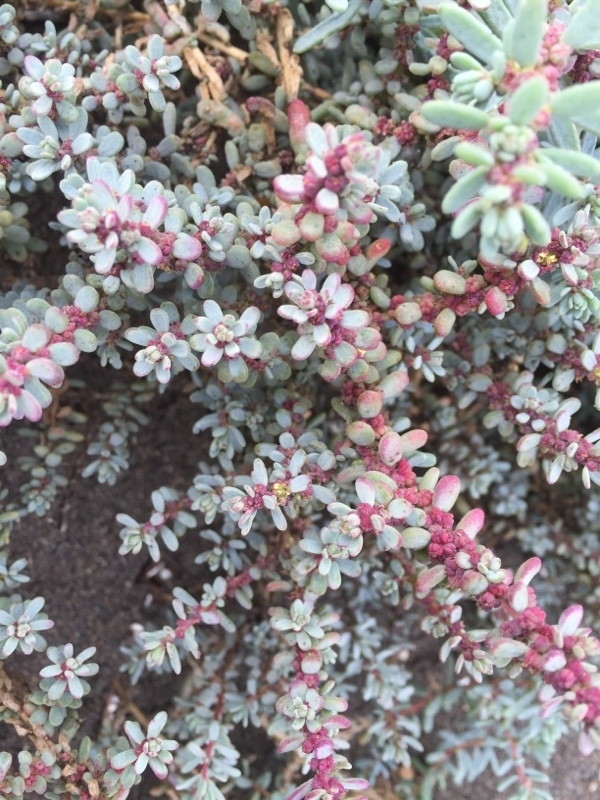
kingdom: Plantae
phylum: Tracheophyta
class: Magnoliopsida
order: Caryophyllales
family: Amaranthaceae
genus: Suaeda
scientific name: Suaeda vermiculata
